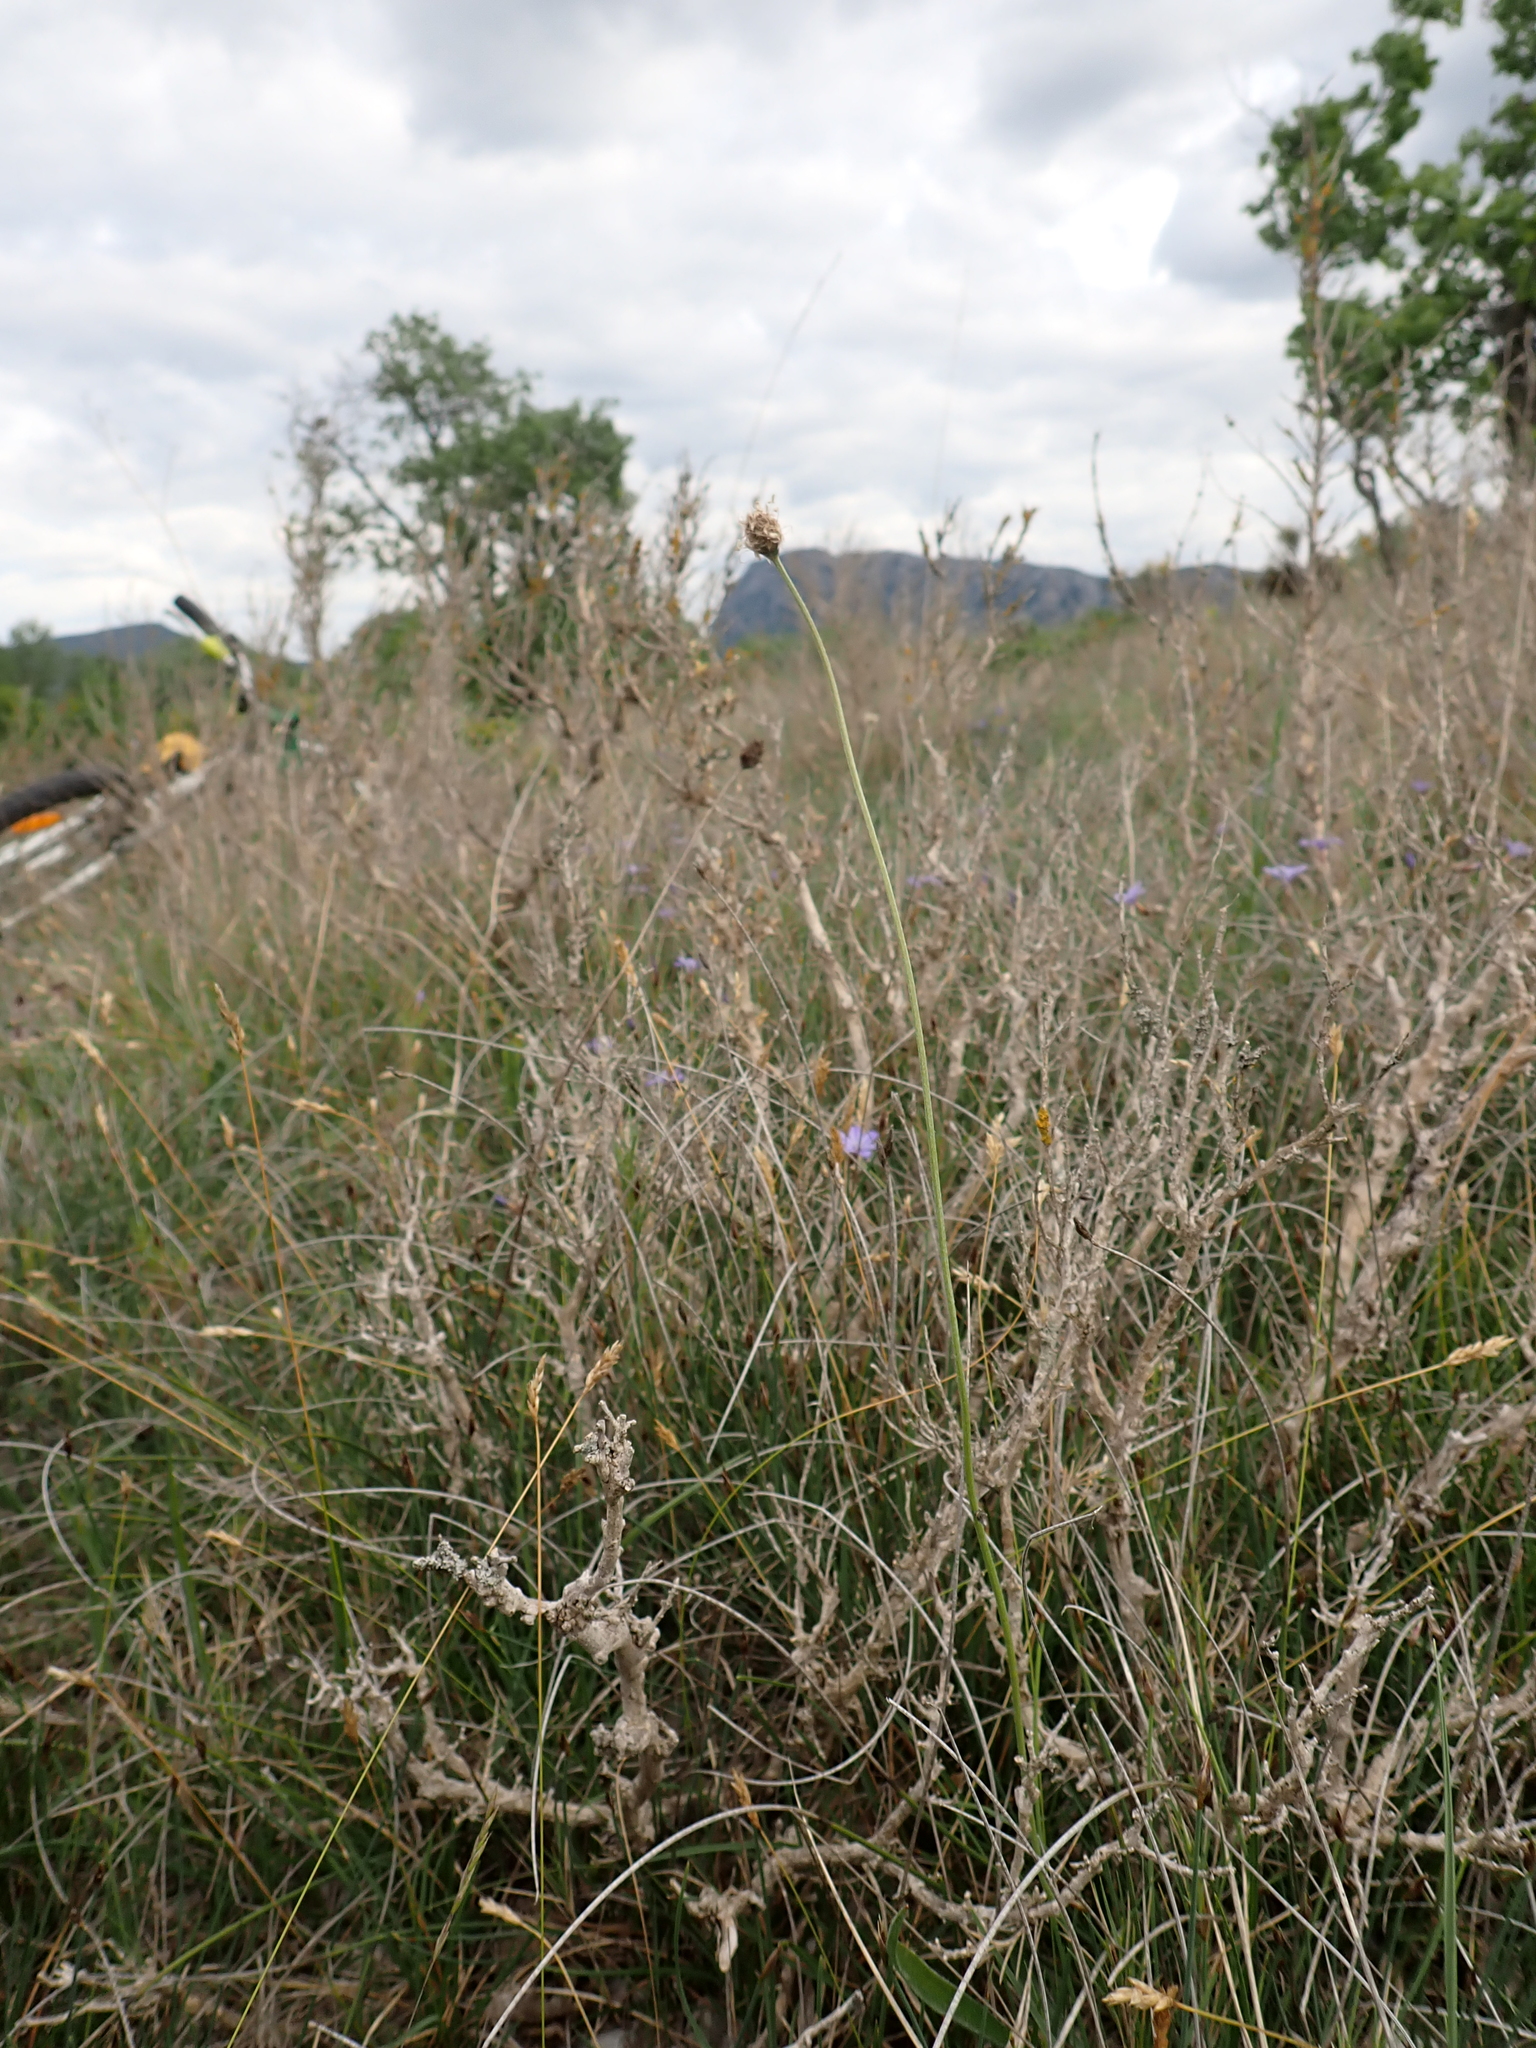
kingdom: Plantae
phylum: Tracheophyta
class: Magnoliopsida
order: Lamiales
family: Plantaginaceae
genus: Plantago
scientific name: Plantago argentea
